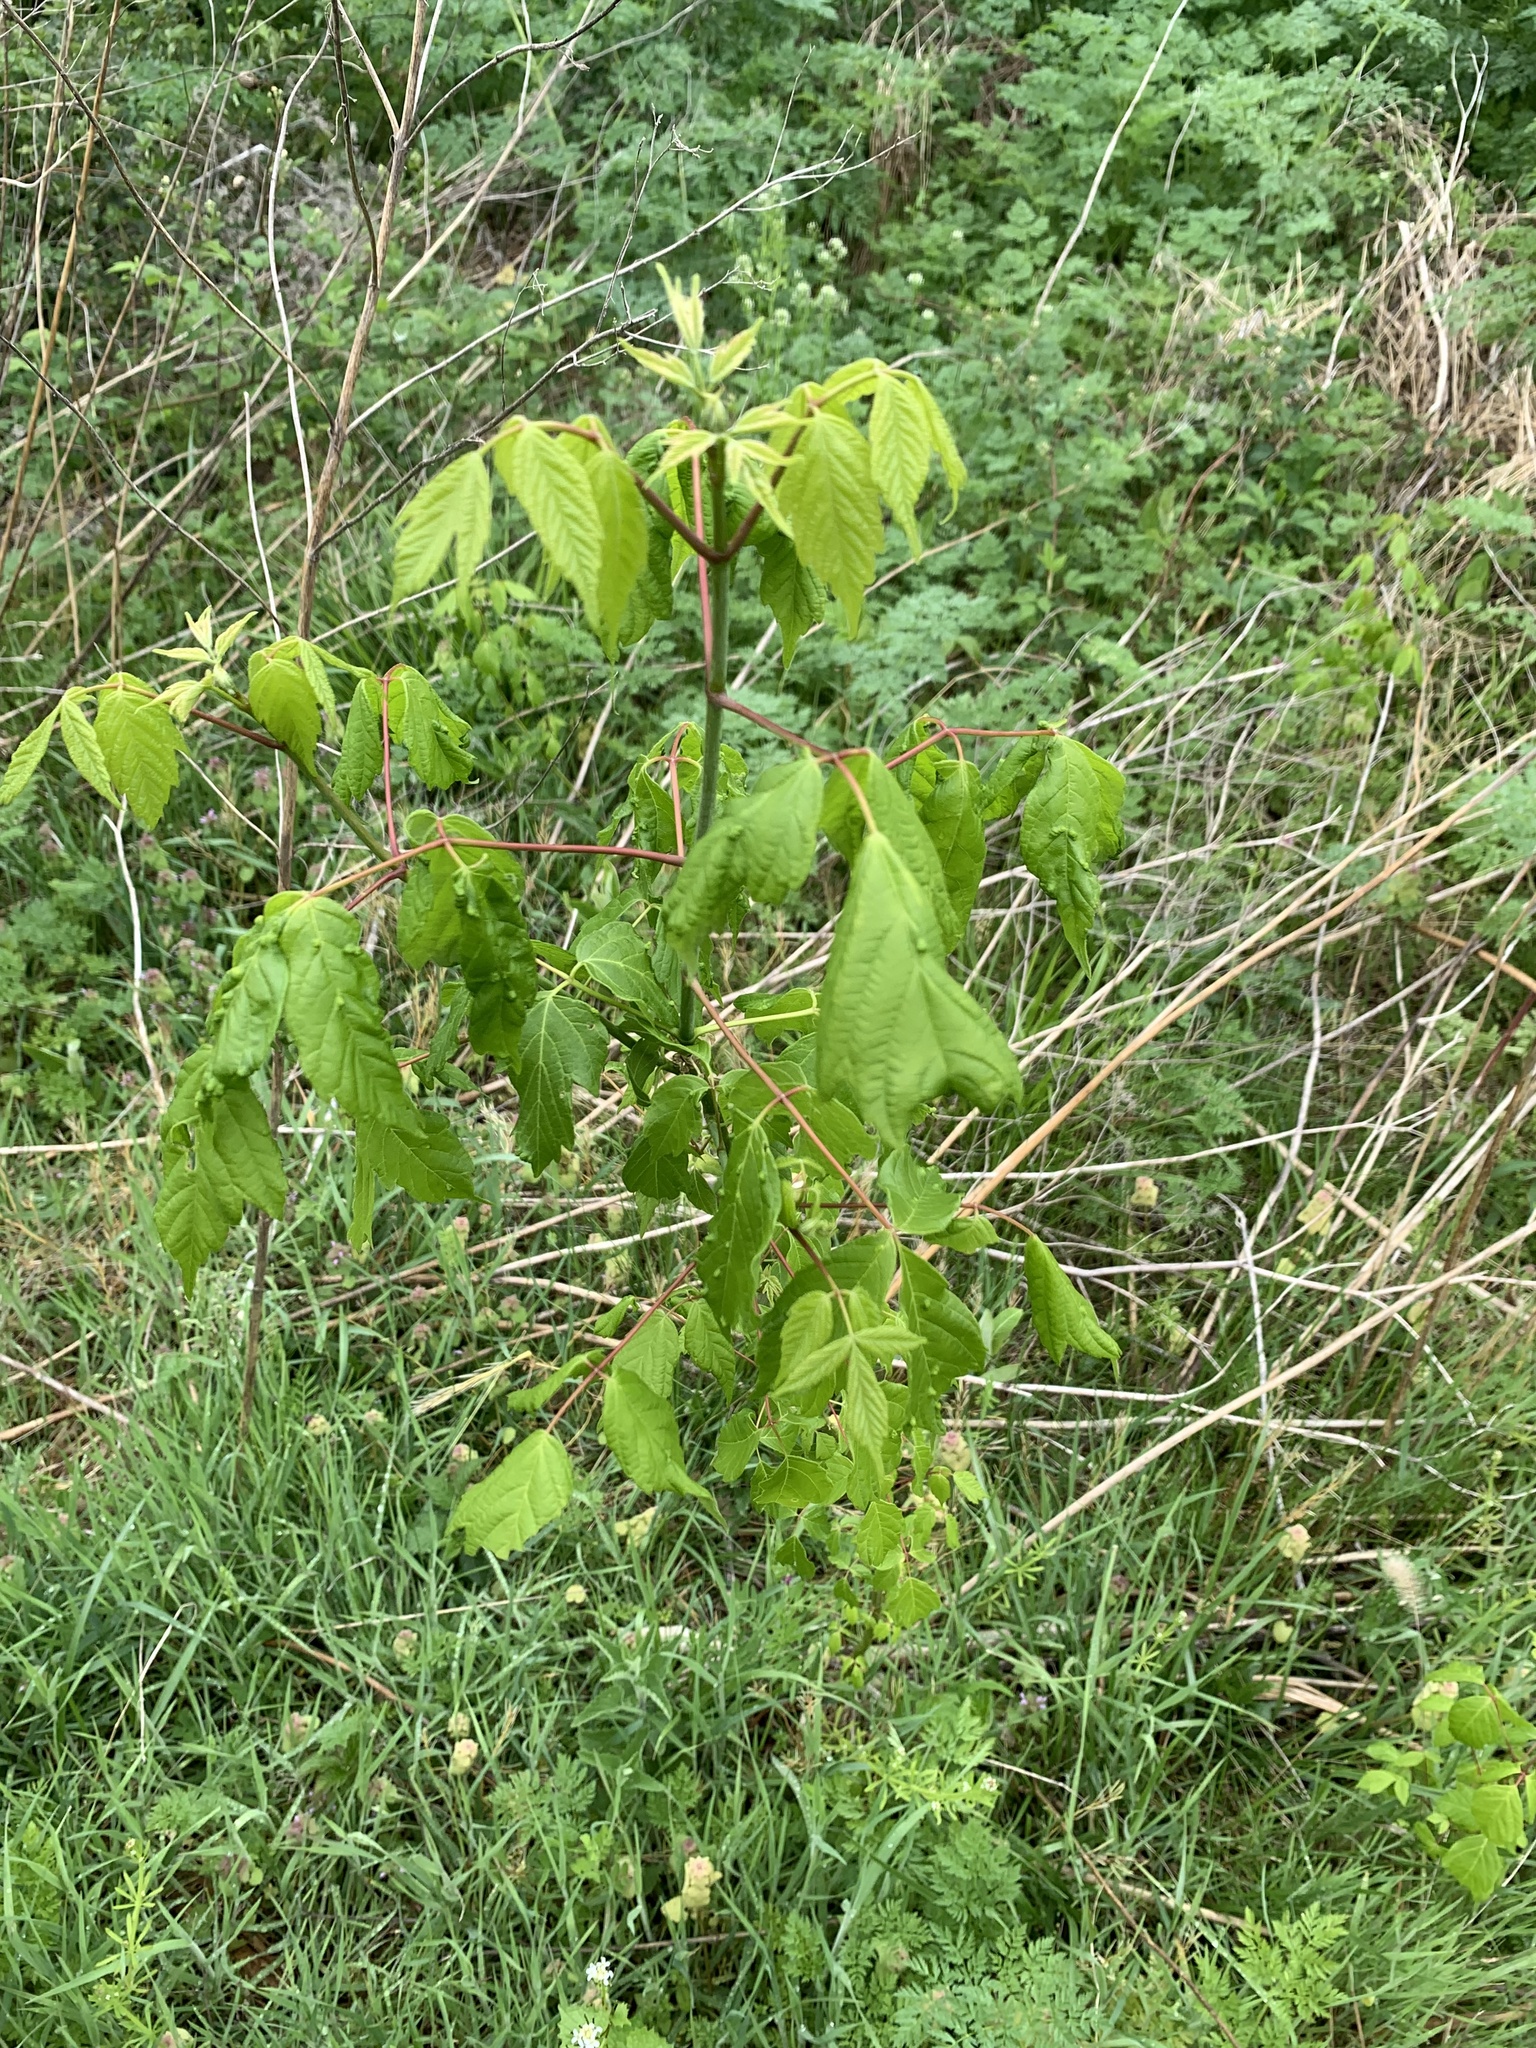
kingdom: Plantae
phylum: Tracheophyta
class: Magnoliopsida
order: Sapindales
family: Sapindaceae
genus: Acer
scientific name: Acer negundo
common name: Ashleaf maple
